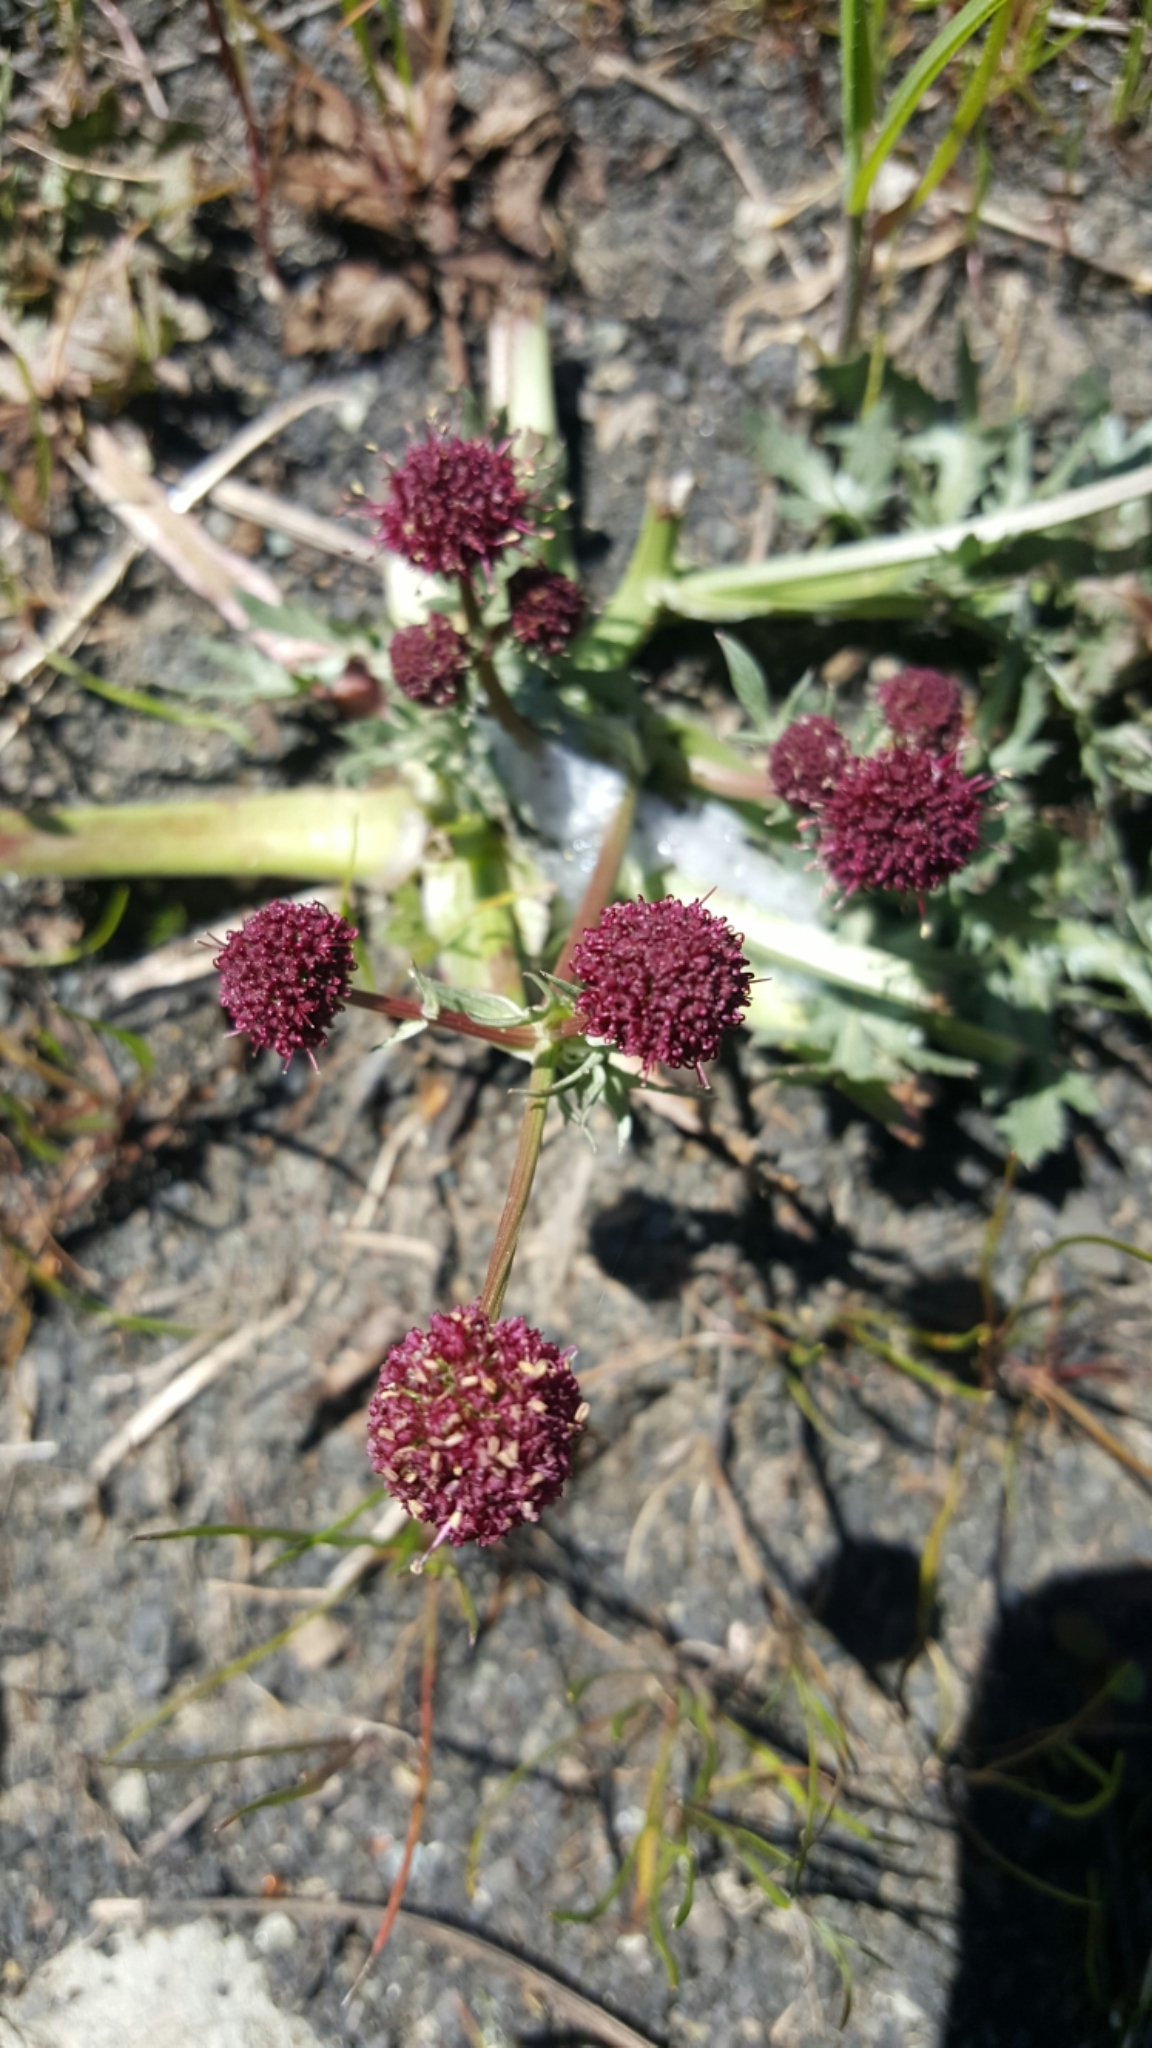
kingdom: Plantae
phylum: Tracheophyta
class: Magnoliopsida
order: Apiales
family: Apiaceae
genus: Sanicula
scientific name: Sanicula bipinnatifida
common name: Shoe-buttons
